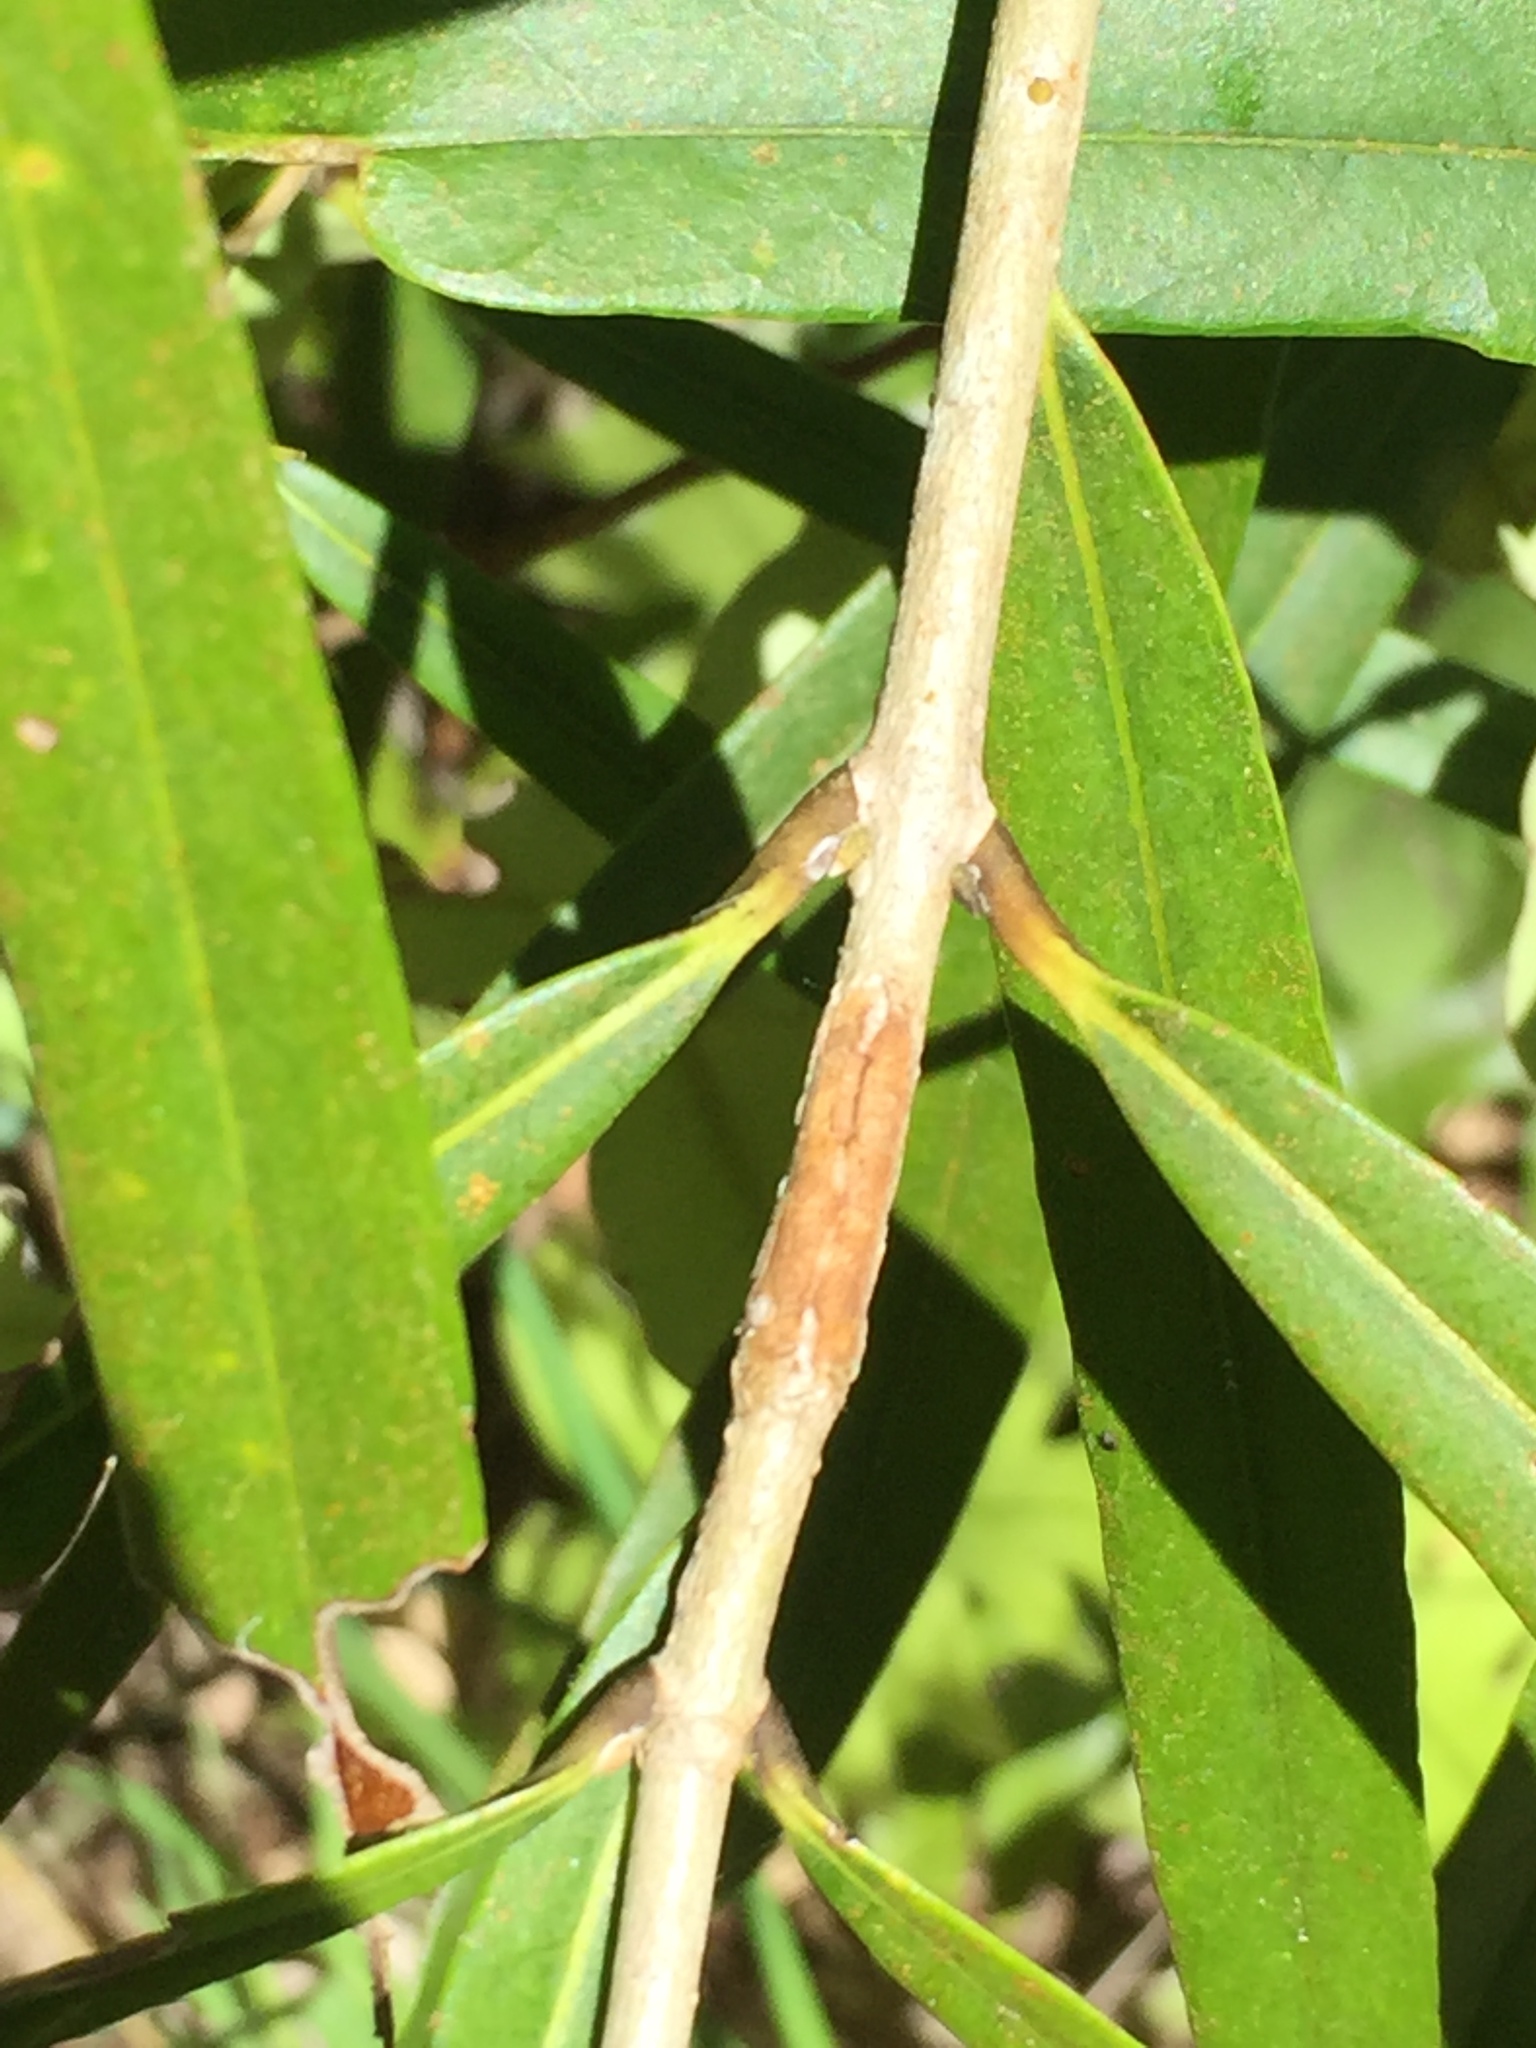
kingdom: Plantae
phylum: Tracheophyta
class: Magnoliopsida
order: Lamiales
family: Oleaceae
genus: Nestegis
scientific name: Nestegis cunninghamii
